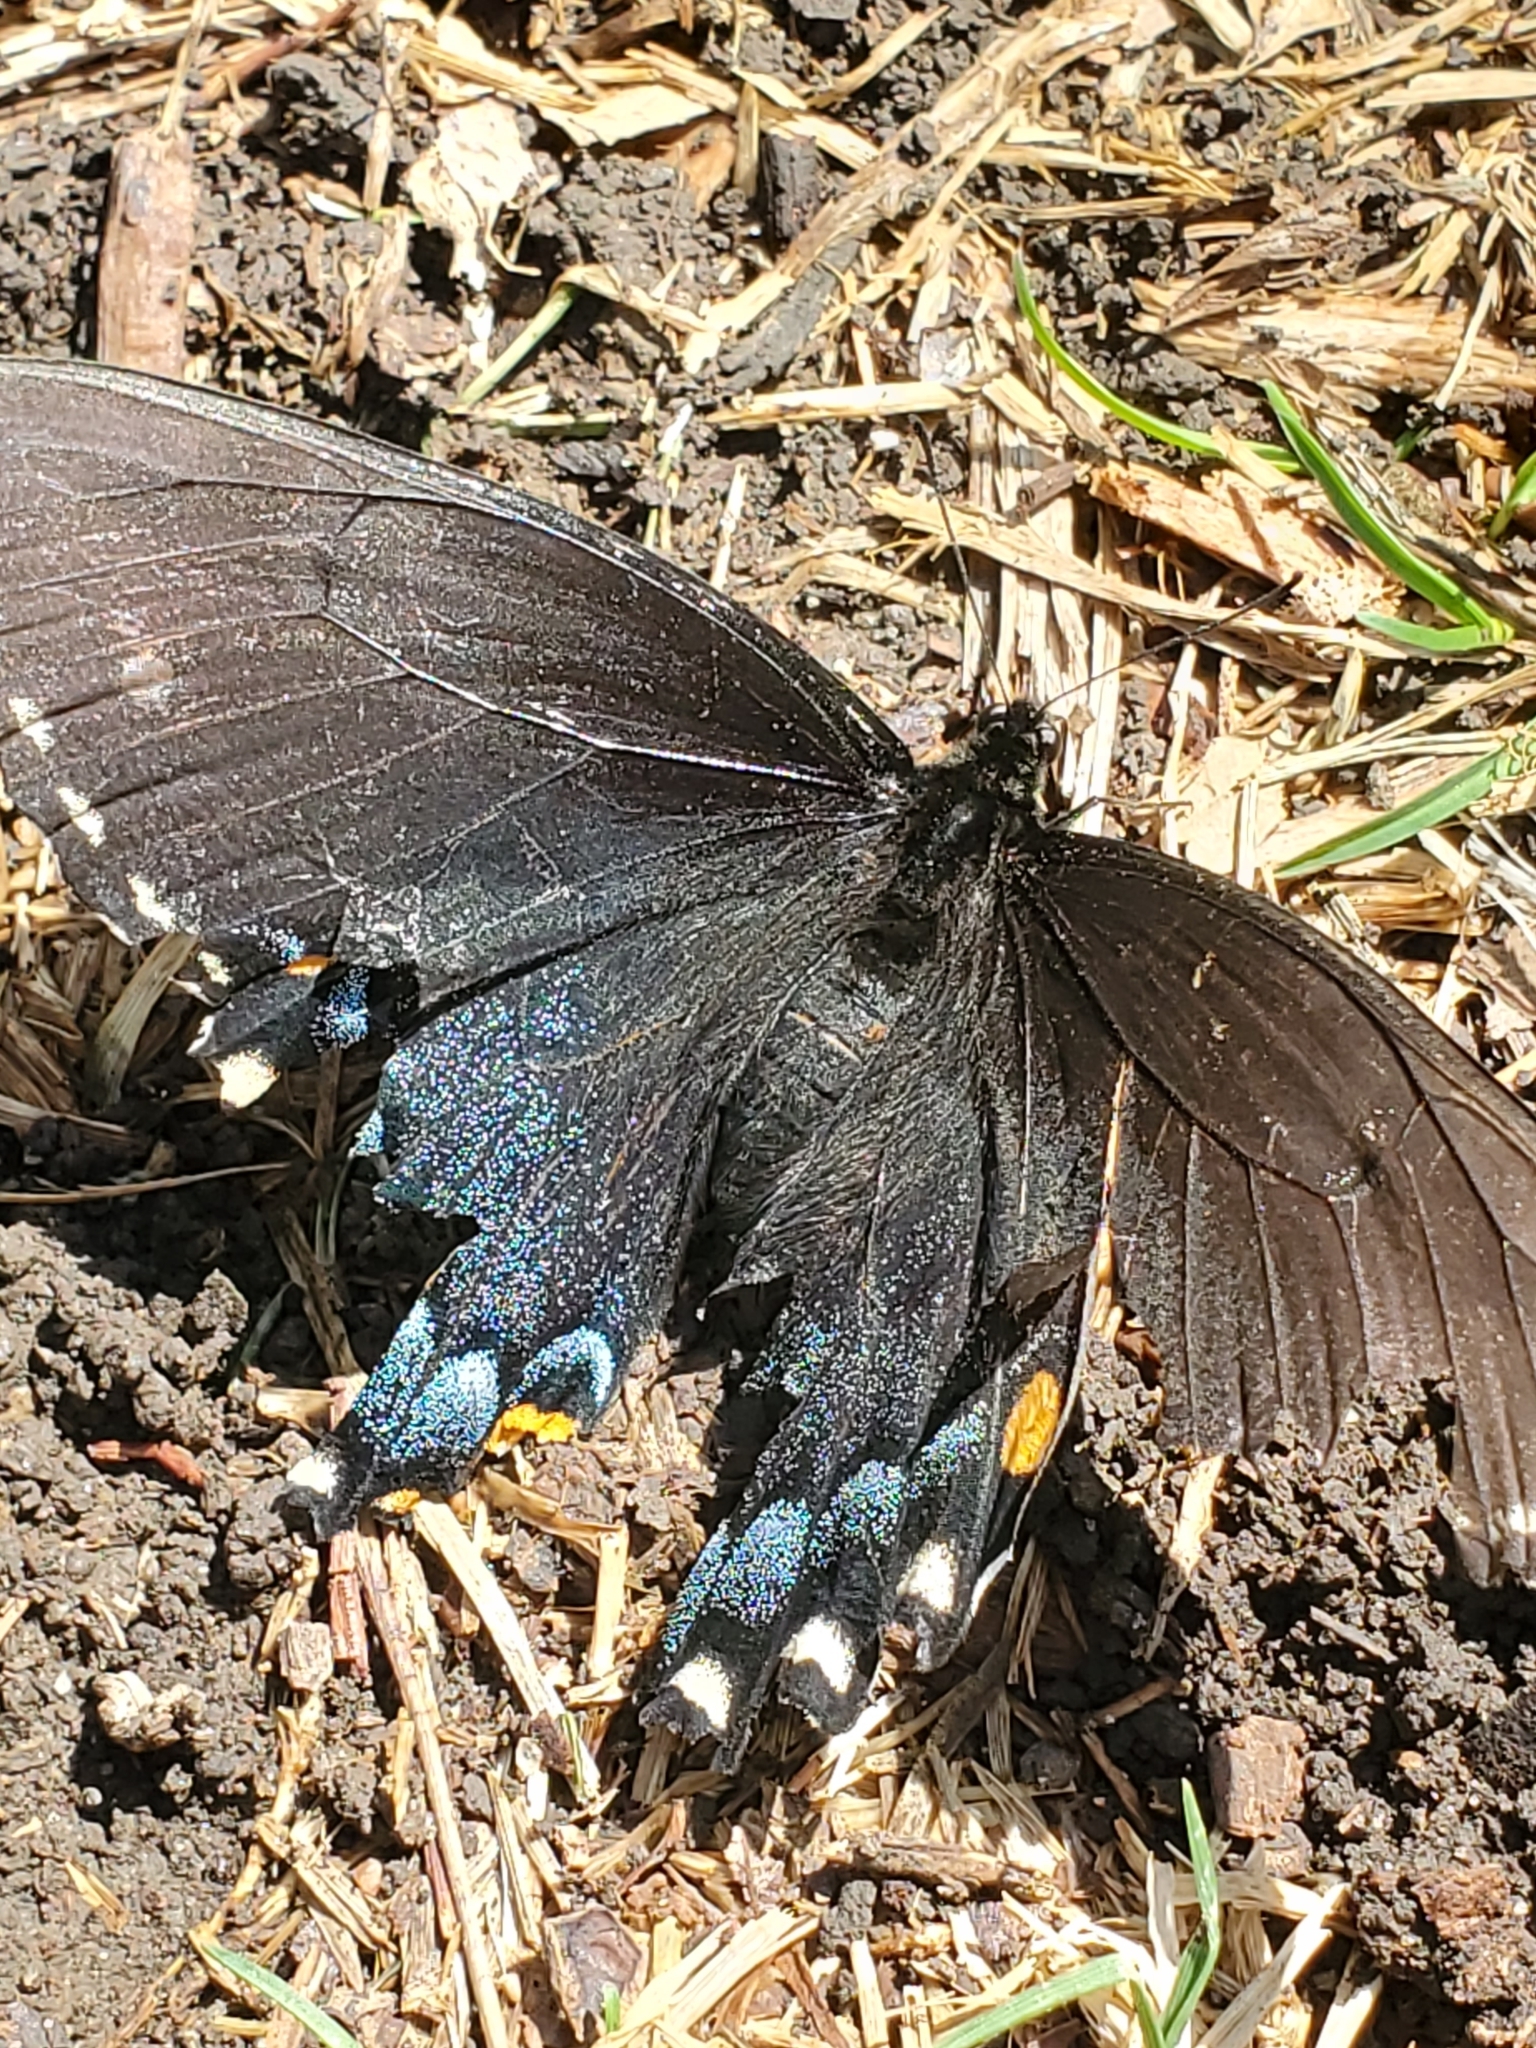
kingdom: Animalia
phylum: Arthropoda
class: Insecta
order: Lepidoptera
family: Papilionidae
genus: Papilio
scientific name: Papilio glaucus
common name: Tiger swallowtail
